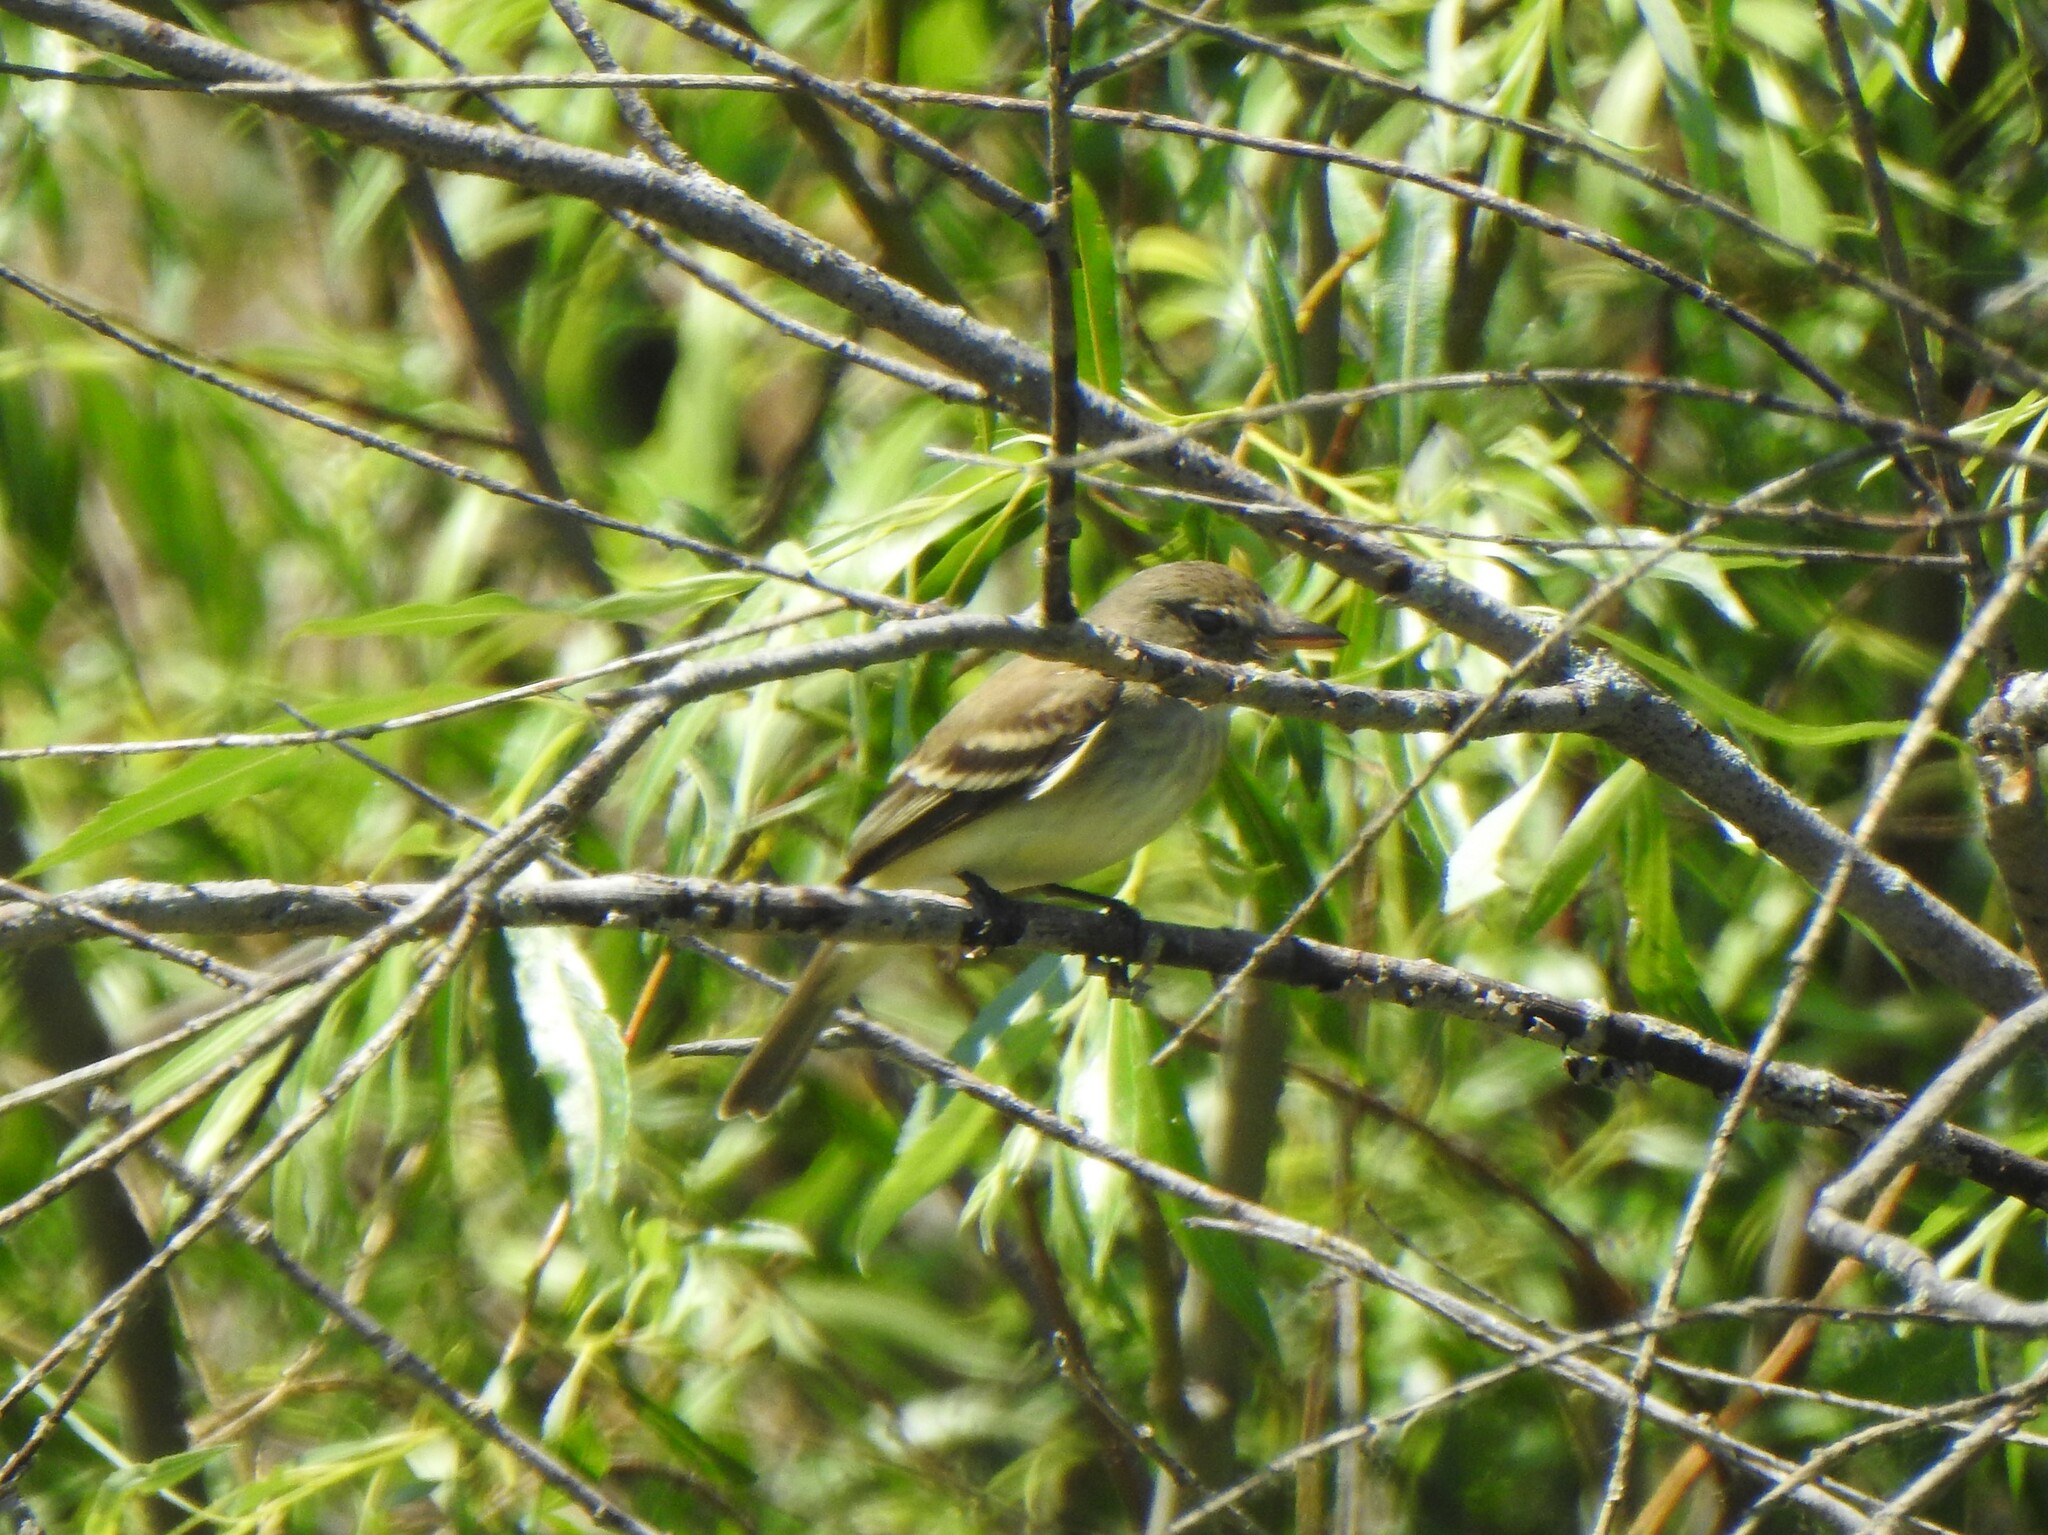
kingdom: Animalia
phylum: Chordata
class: Aves
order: Passeriformes
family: Tyrannidae
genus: Empidonax
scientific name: Empidonax
